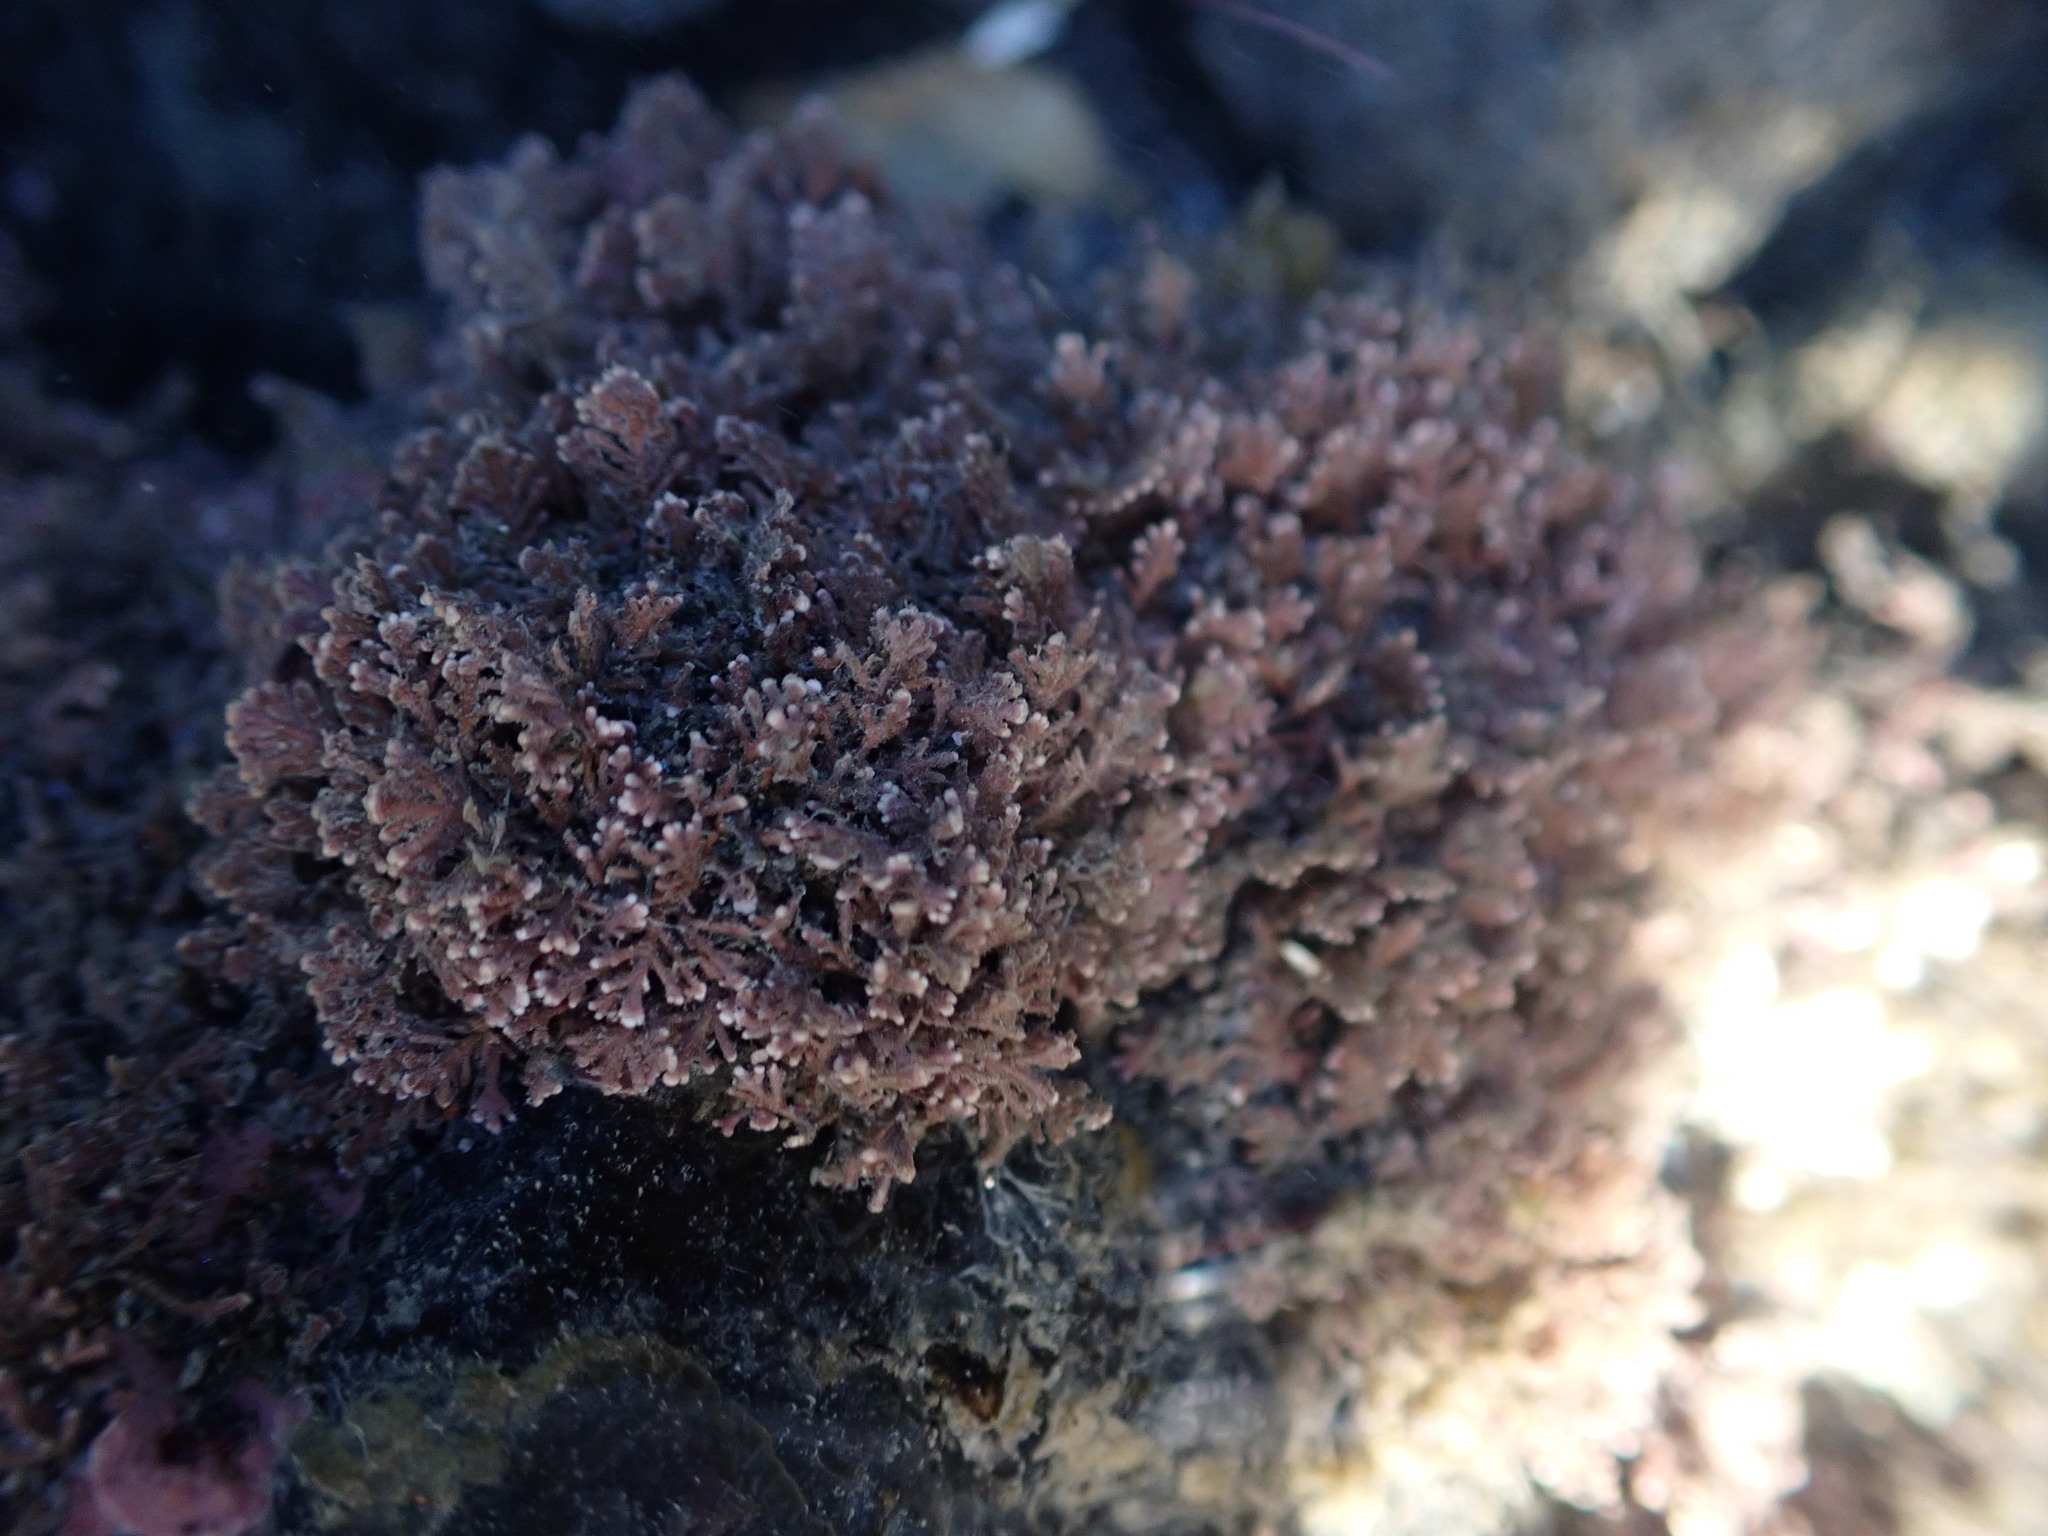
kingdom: Plantae
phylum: Rhodophyta
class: Florideophyceae
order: Corallinales
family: Corallinaceae
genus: Corallina
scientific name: Corallina officinalis
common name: Coral weed
